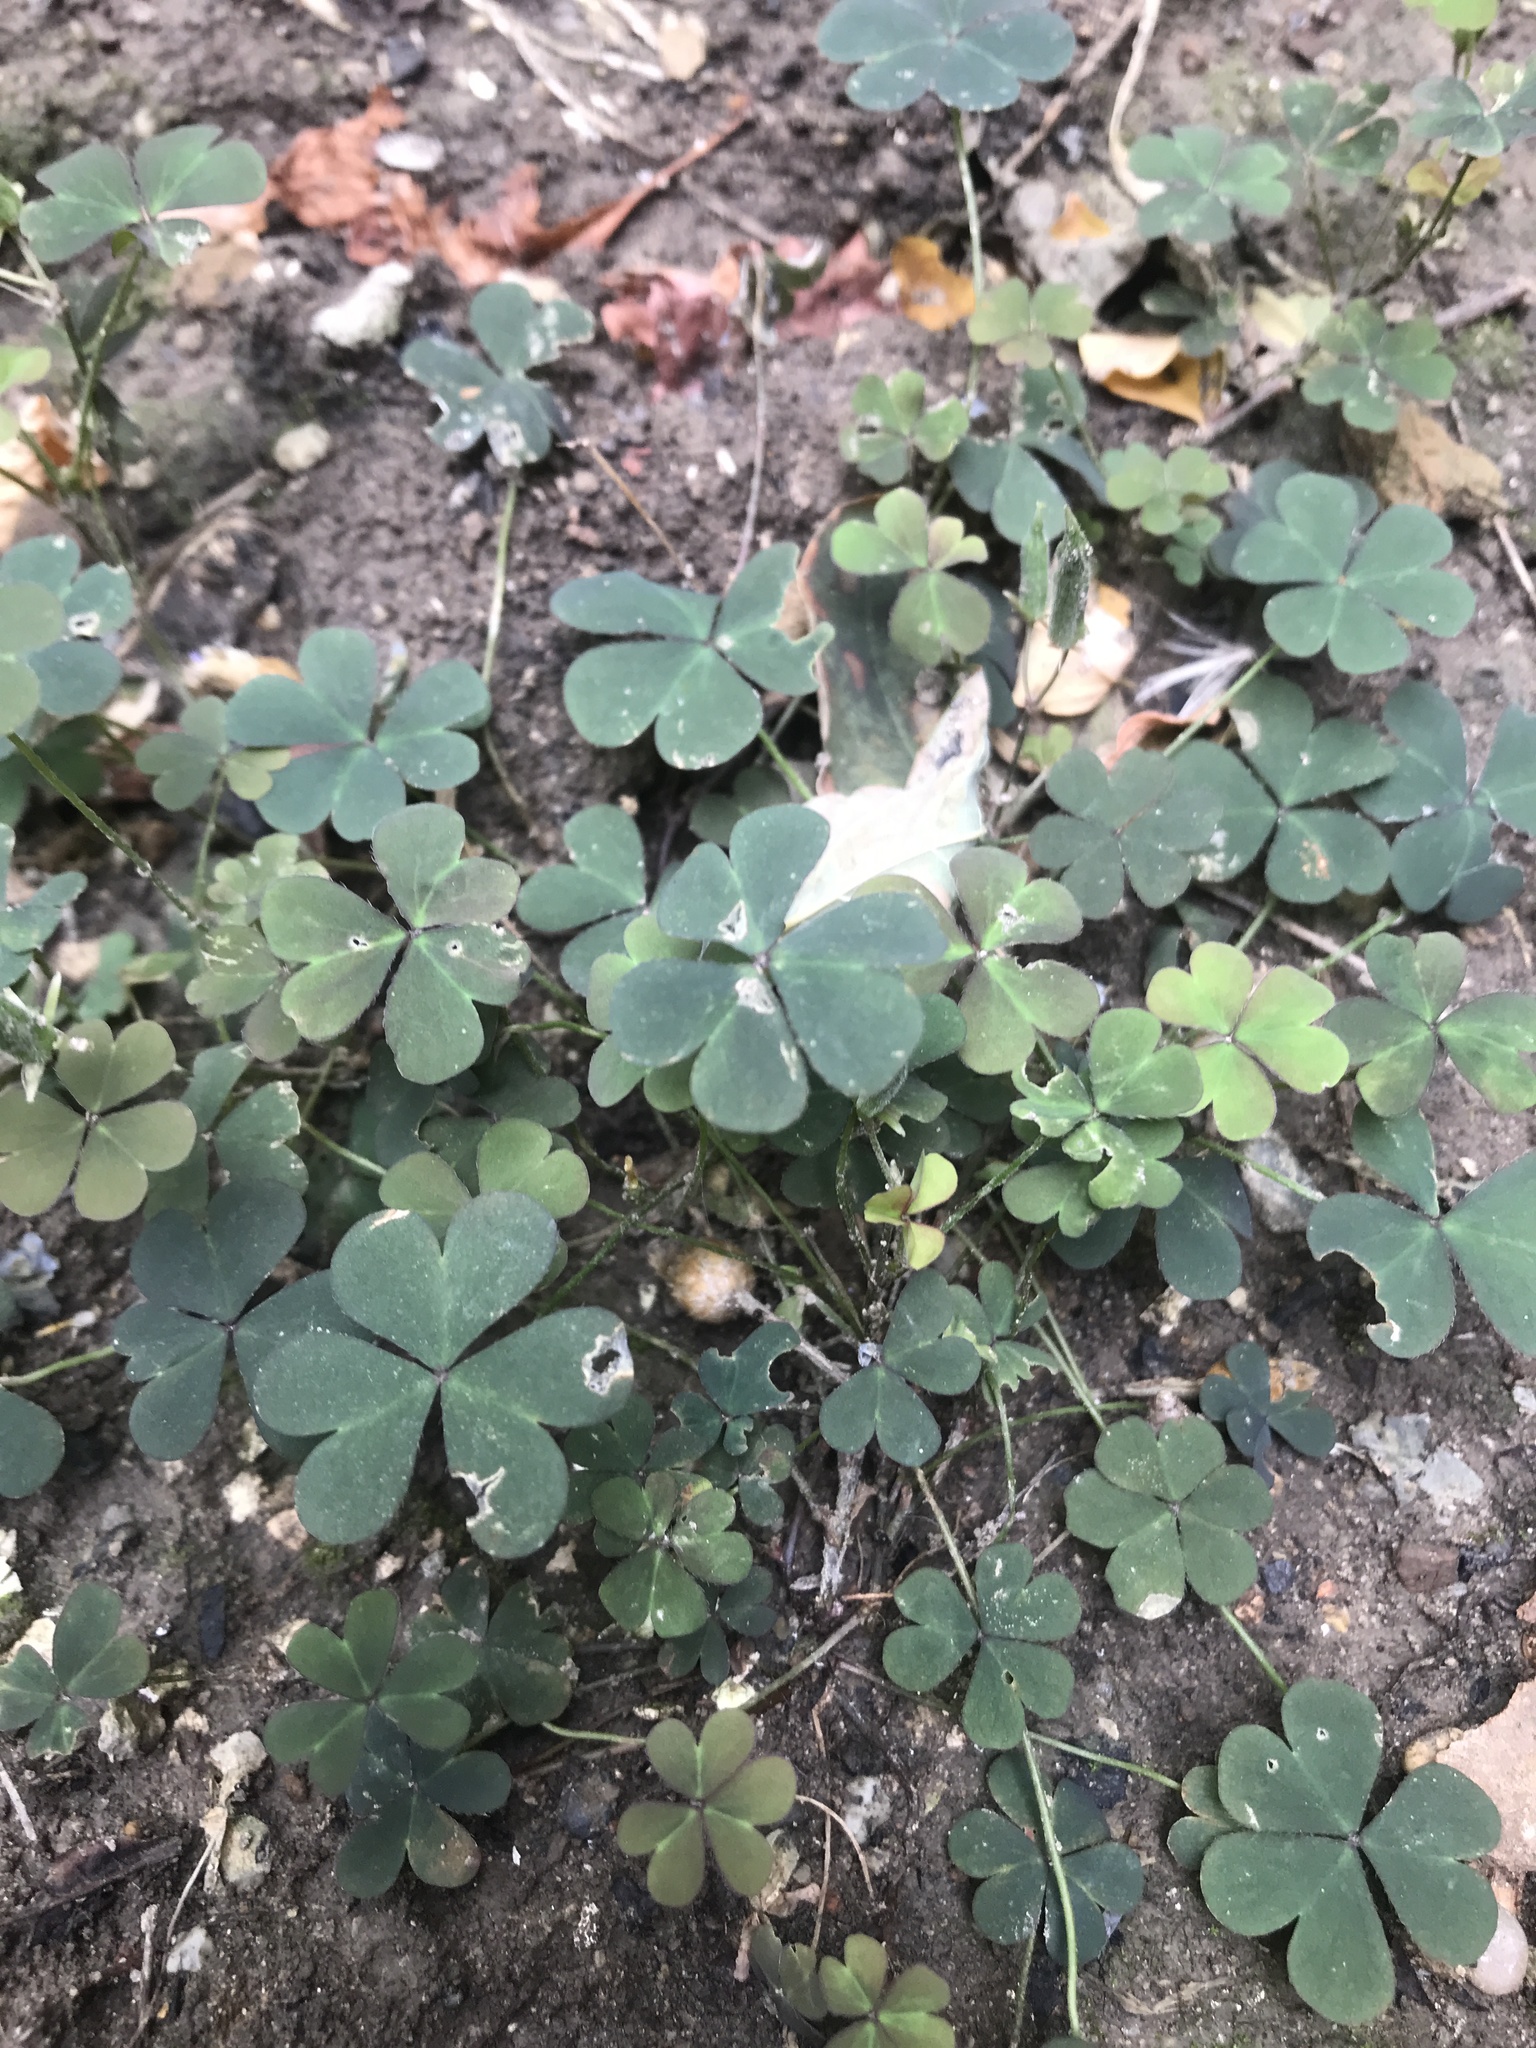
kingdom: Plantae
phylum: Tracheophyta
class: Magnoliopsida
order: Oxalidales
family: Oxalidaceae
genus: Oxalis
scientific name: Oxalis corniculata
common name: Procumbent yellow-sorrel
